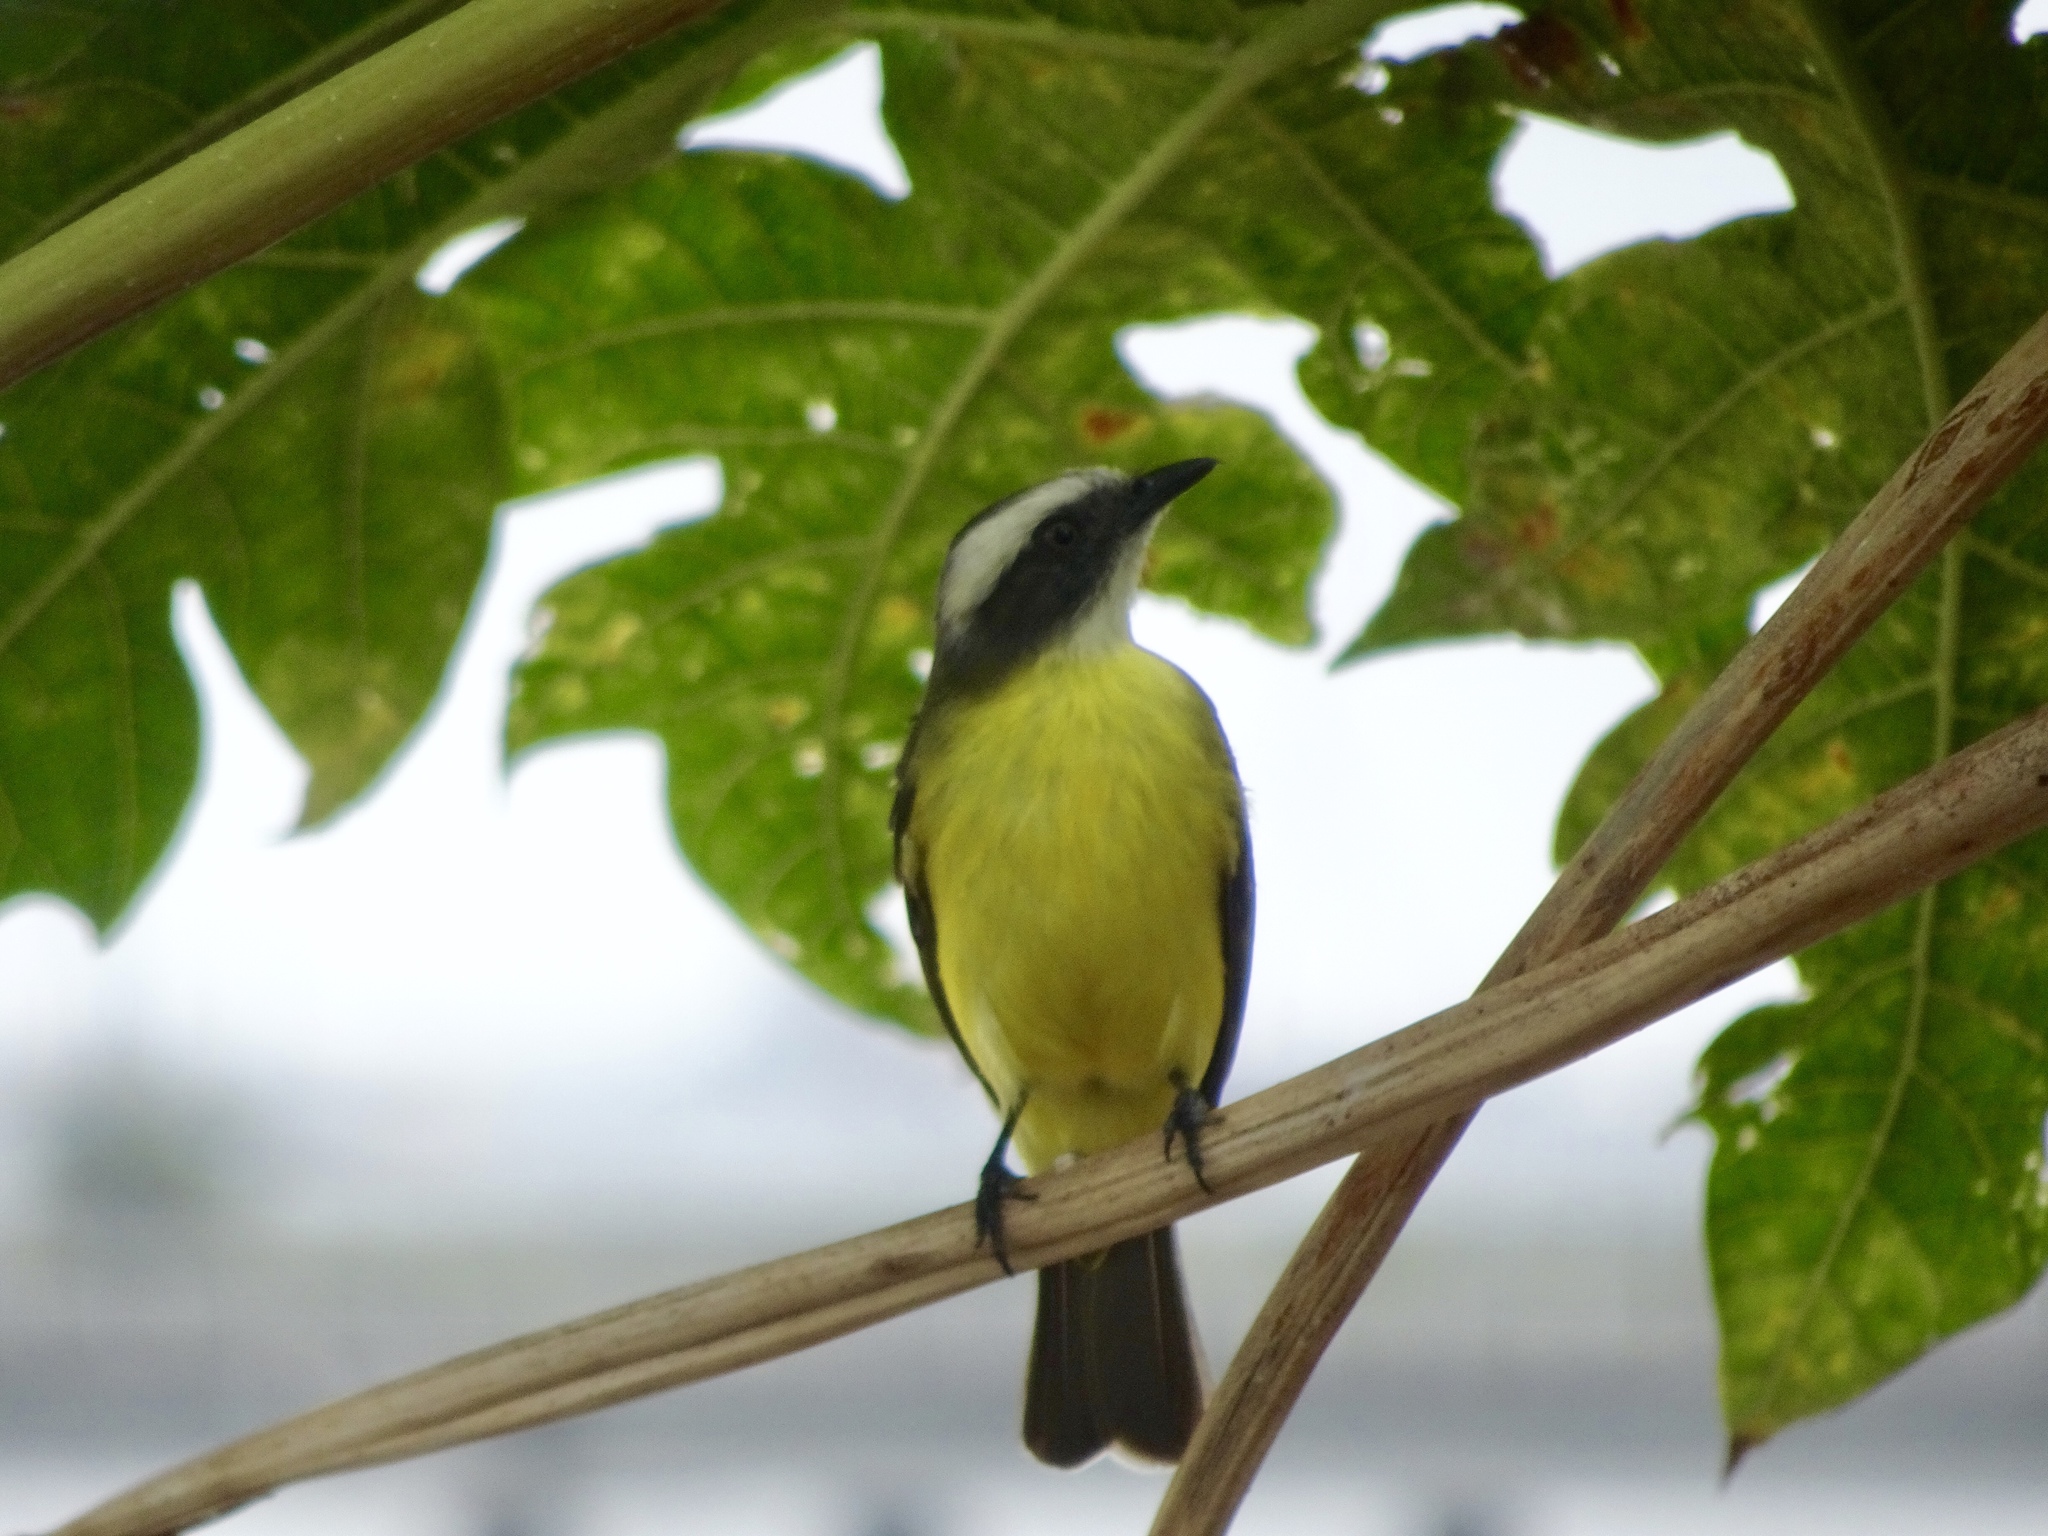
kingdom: Animalia
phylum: Chordata
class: Aves
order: Passeriformes
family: Tyrannidae
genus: Myiozetetes
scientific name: Myiozetetes similis
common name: Social flycatcher
